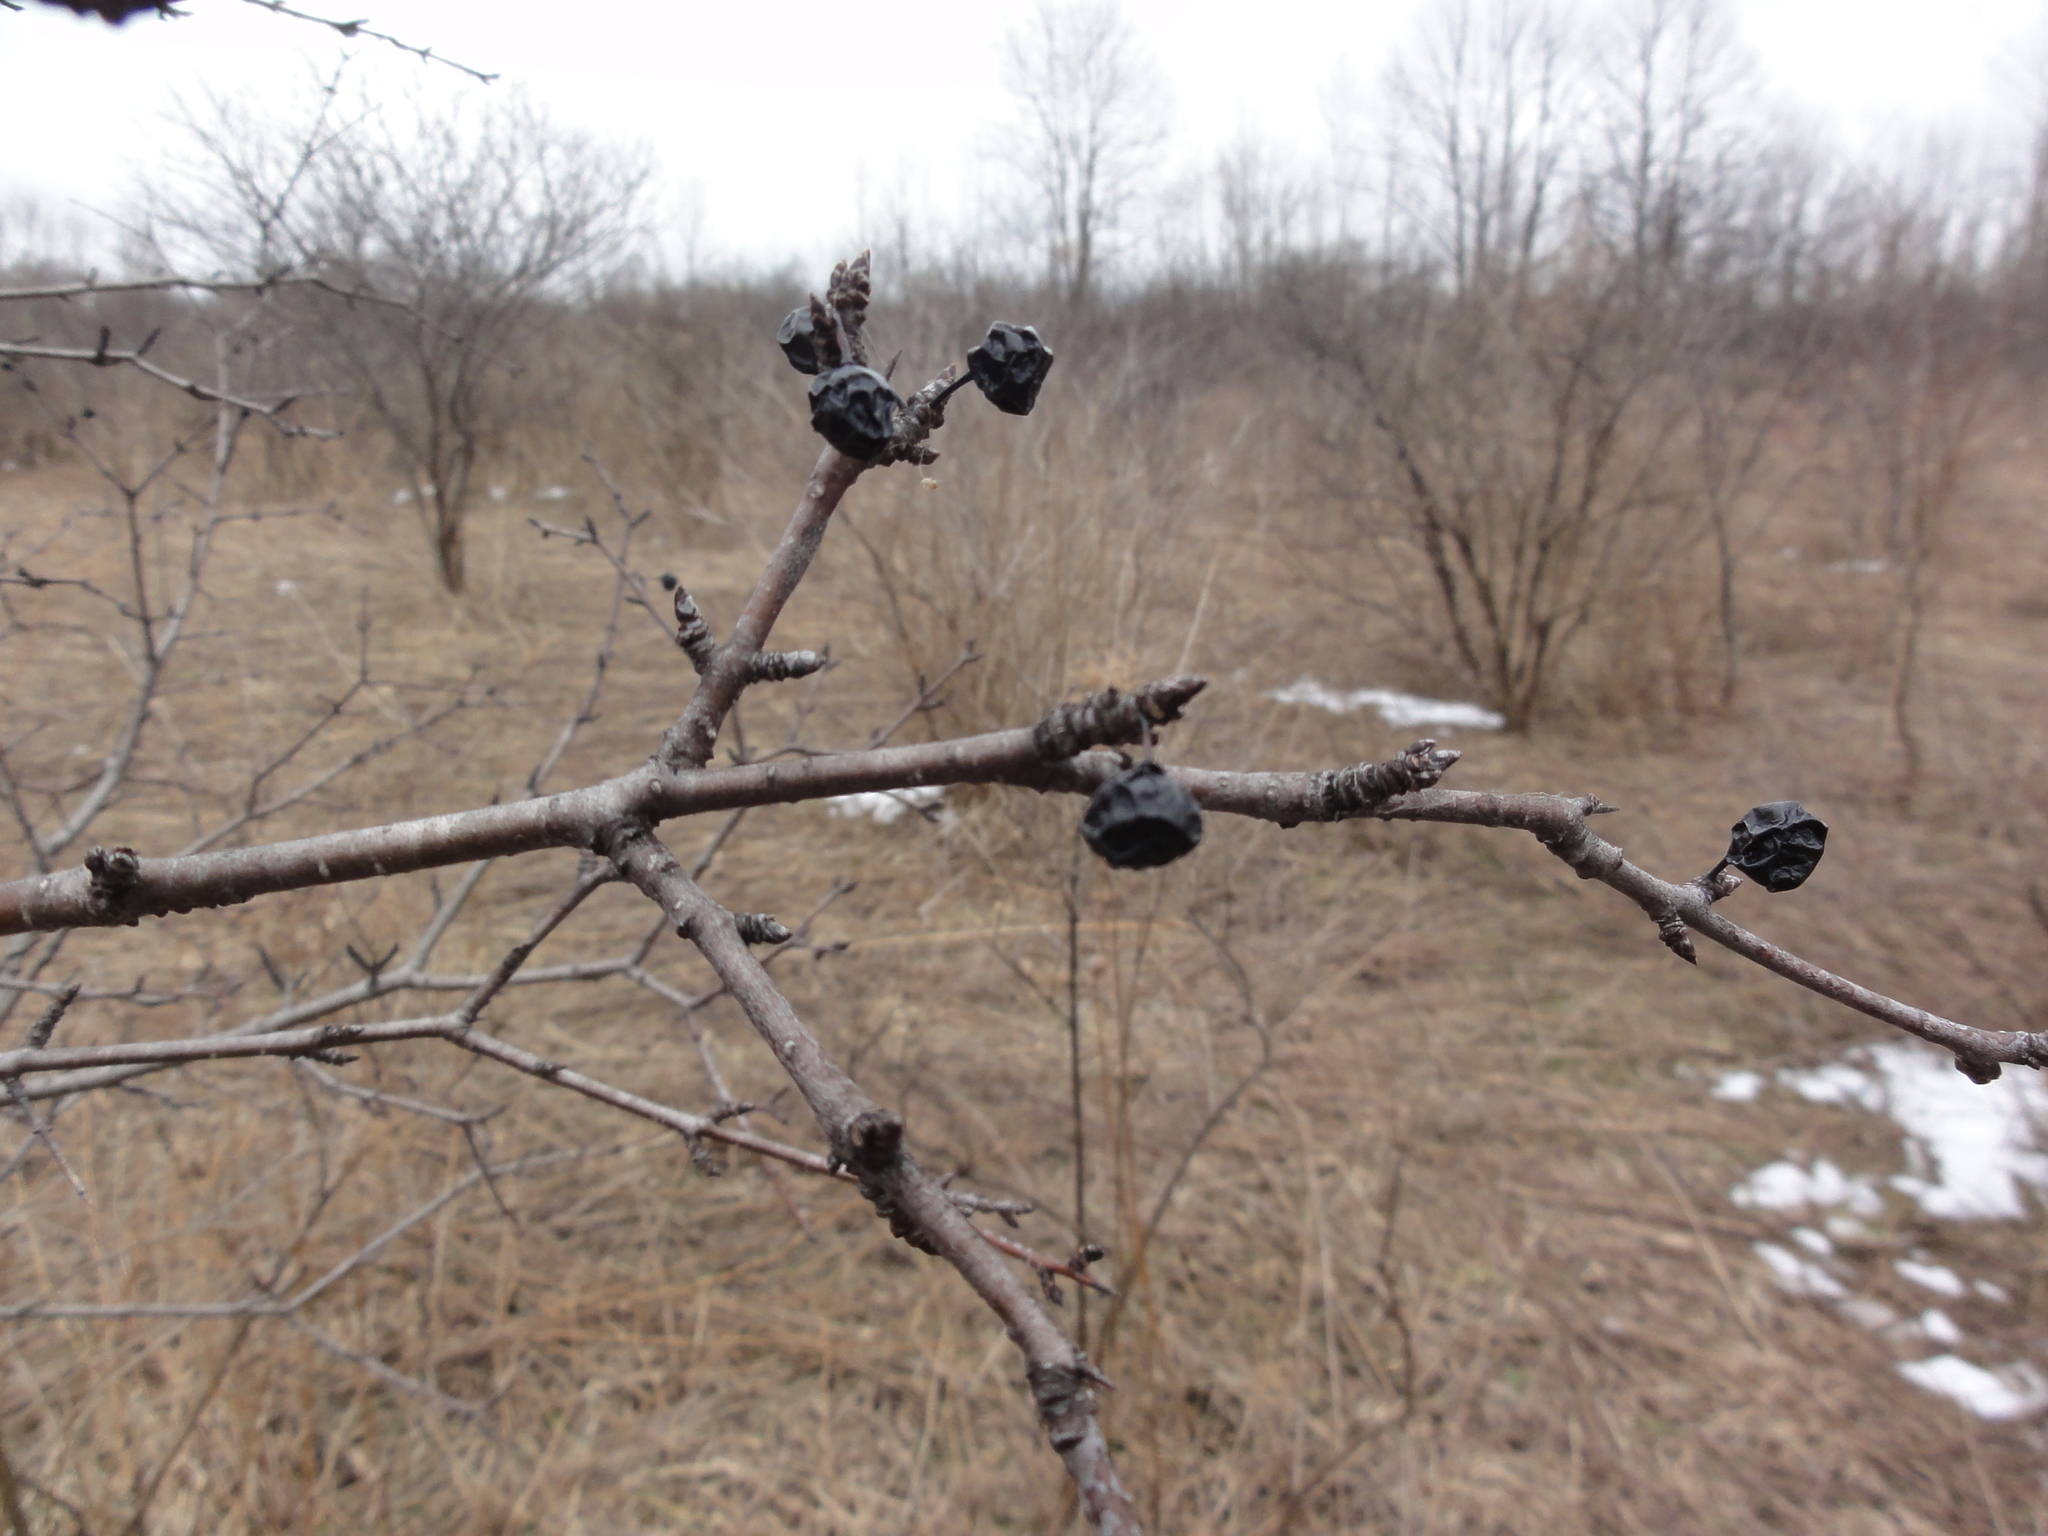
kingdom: Plantae
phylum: Tracheophyta
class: Magnoliopsida
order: Rosales
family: Rhamnaceae
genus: Rhamnus
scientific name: Rhamnus cathartica
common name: Common buckthorn
